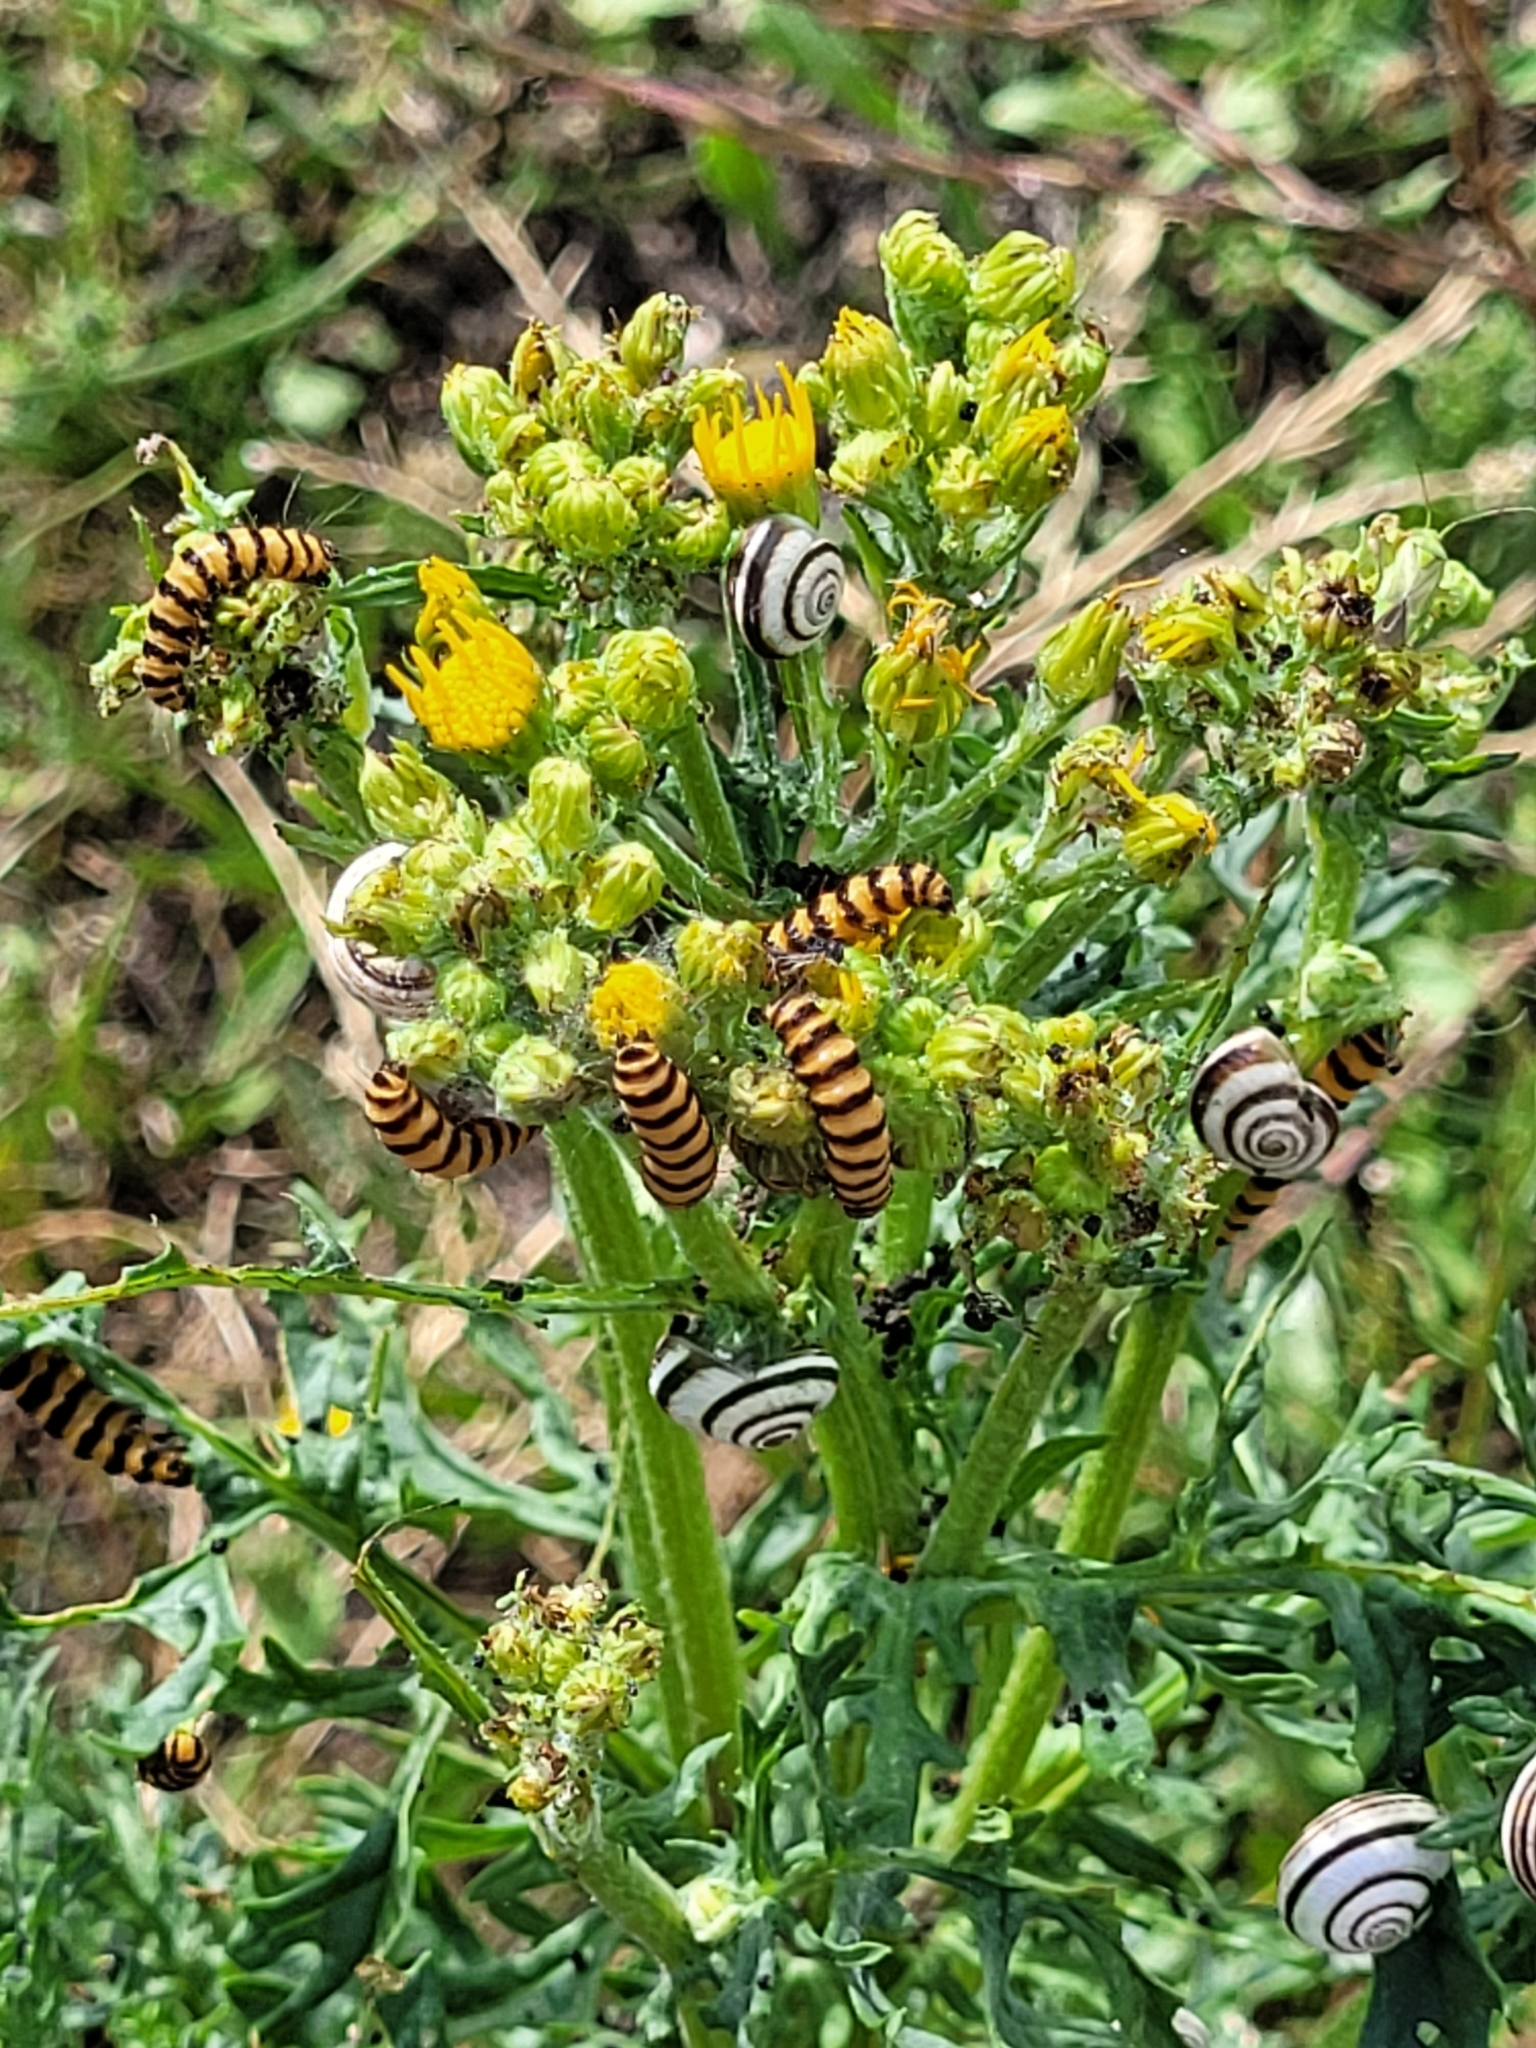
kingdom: Animalia
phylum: Arthropoda
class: Insecta
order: Lepidoptera
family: Erebidae
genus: Tyria
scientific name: Tyria jacobaeae
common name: Cinnabar
